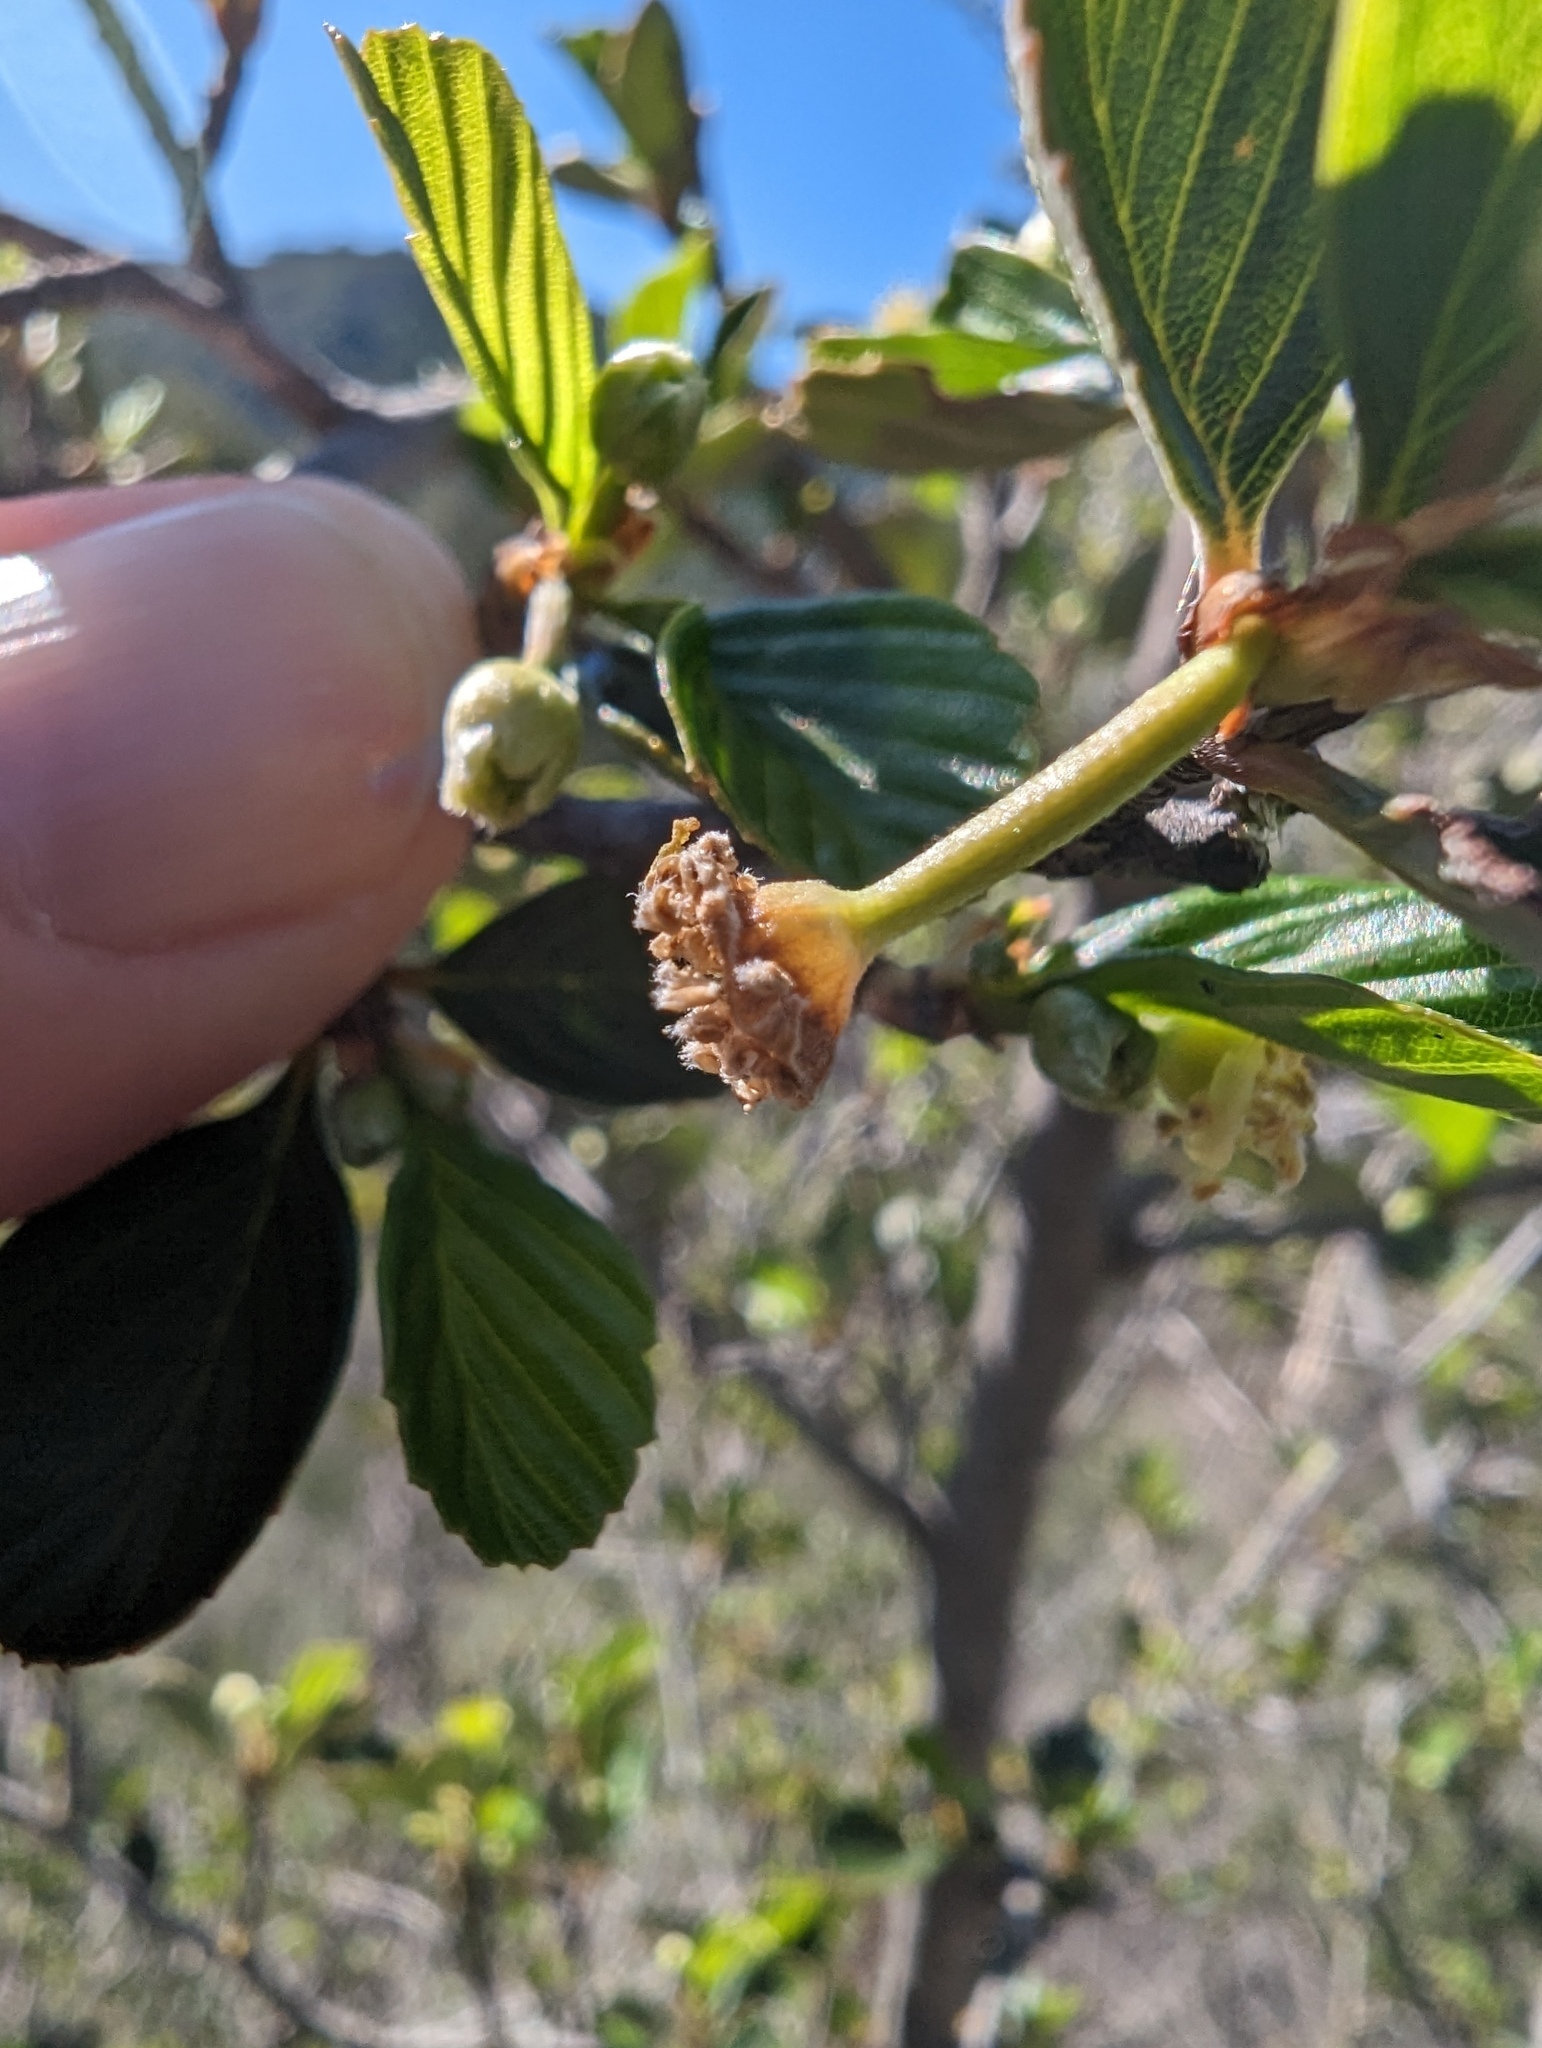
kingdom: Plantae
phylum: Tracheophyta
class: Magnoliopsida
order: Rosales
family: Rosaceae
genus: Cercocarpus
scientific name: Cercocarpus betuloides
